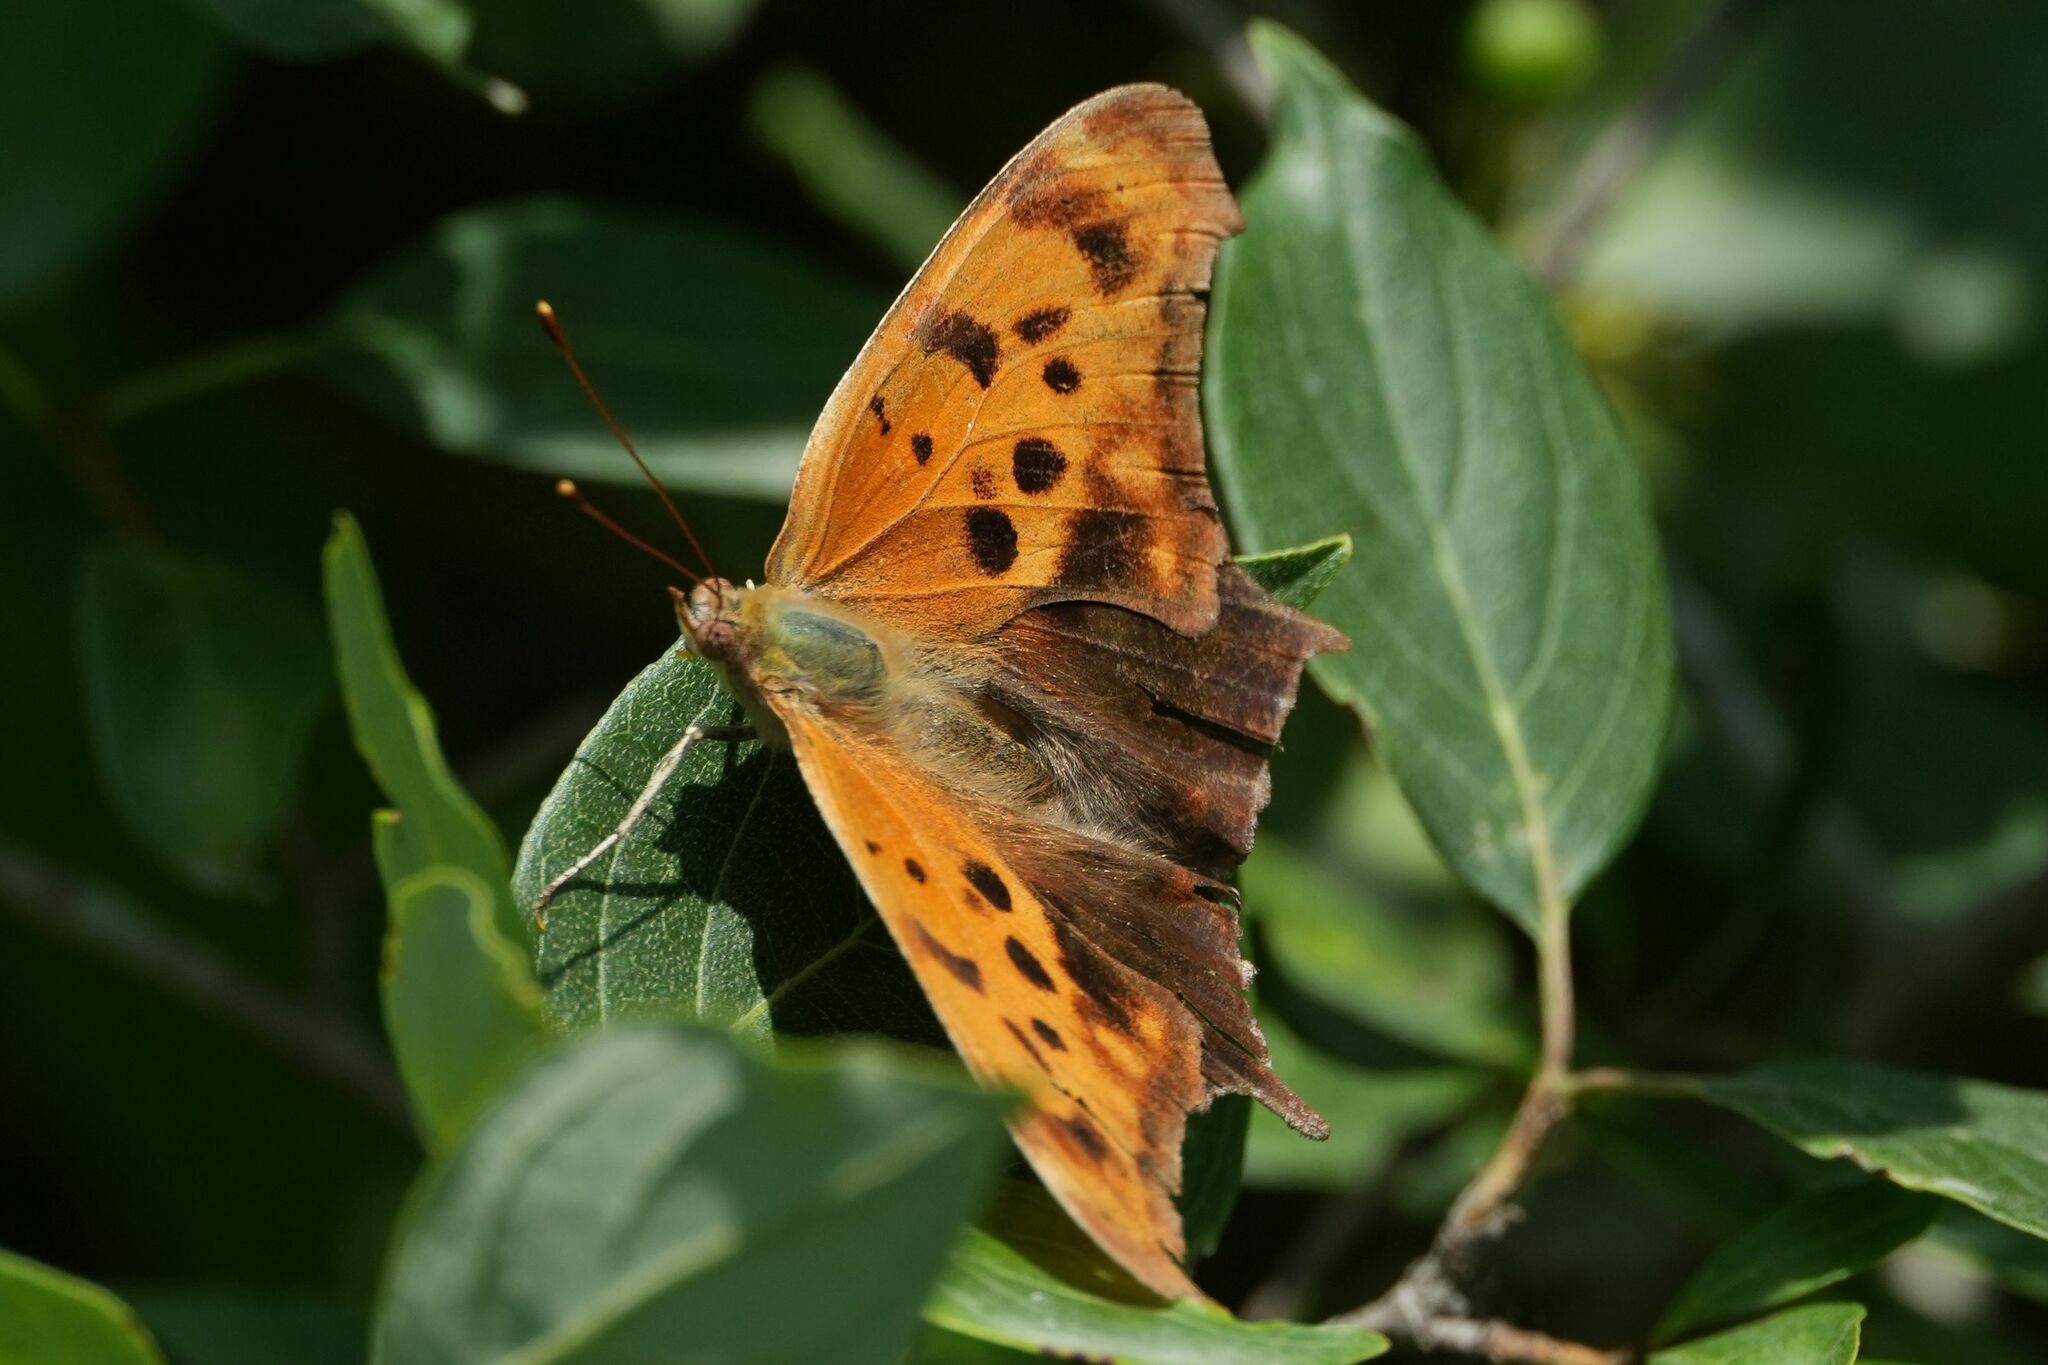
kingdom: Animalia
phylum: Arthropoda
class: Insecta
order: Lepidoptera
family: Nymphalidae
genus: Polygonia
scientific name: Polygonia interrogationis
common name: Question mark
